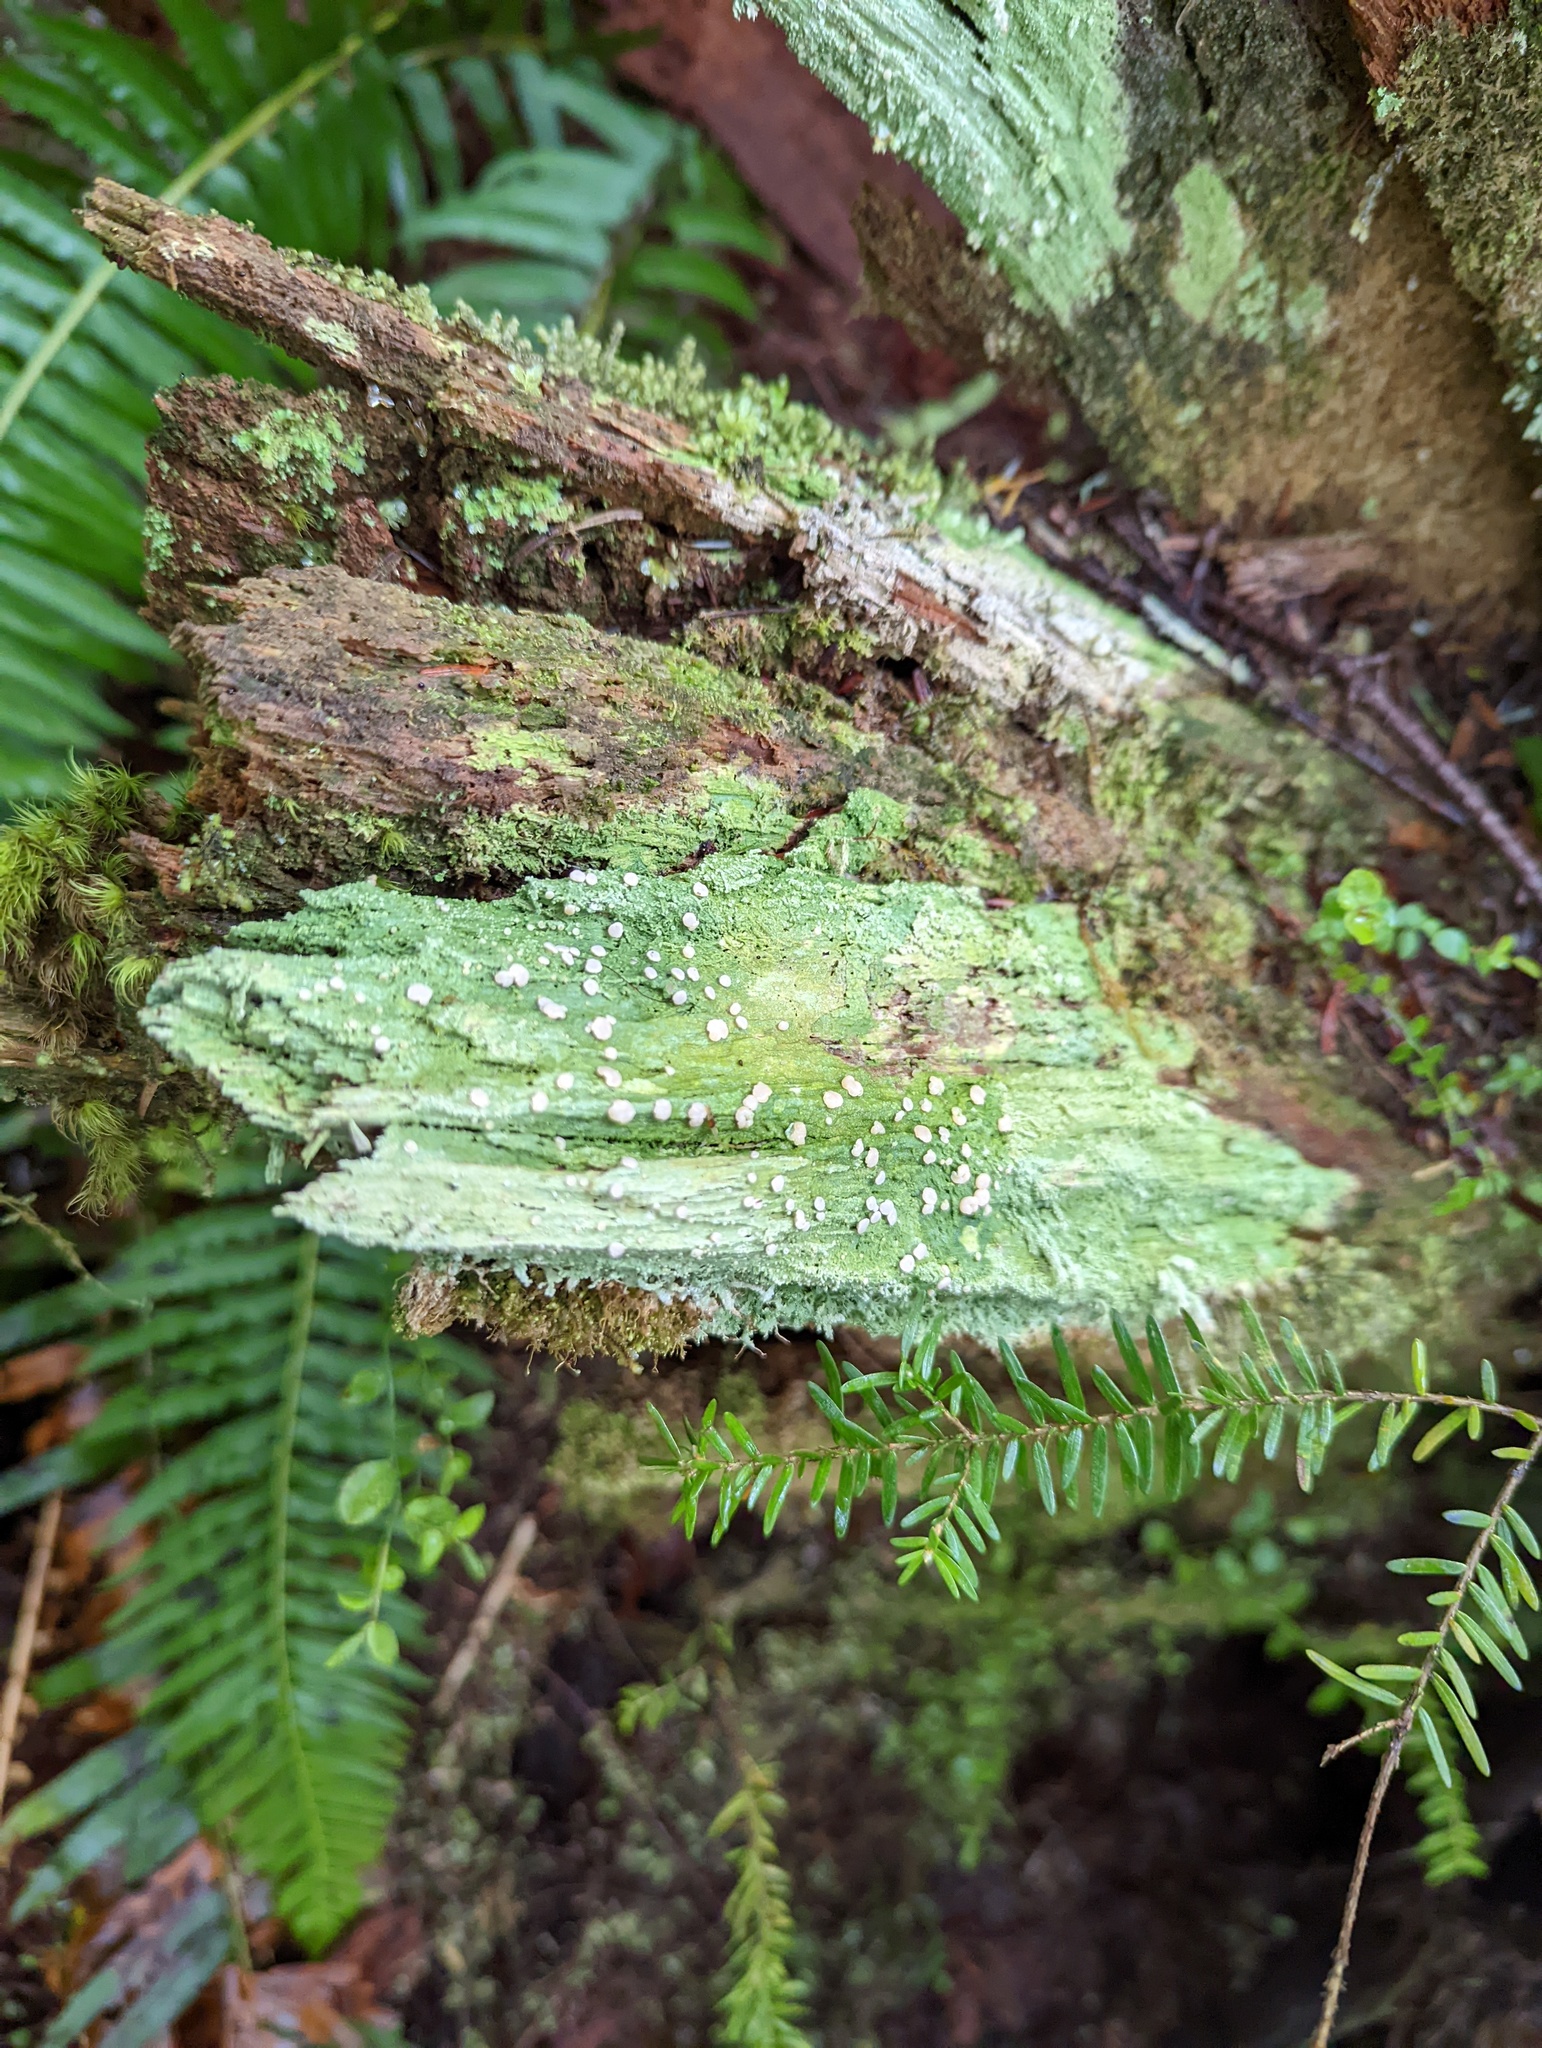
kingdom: Fungi
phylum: Ascomycota
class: Lecanoromycetes
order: Pertusariales
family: Icmadophilaceae
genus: Icmadophila
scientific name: Icmadophila ericetorum
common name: Candy lichen
